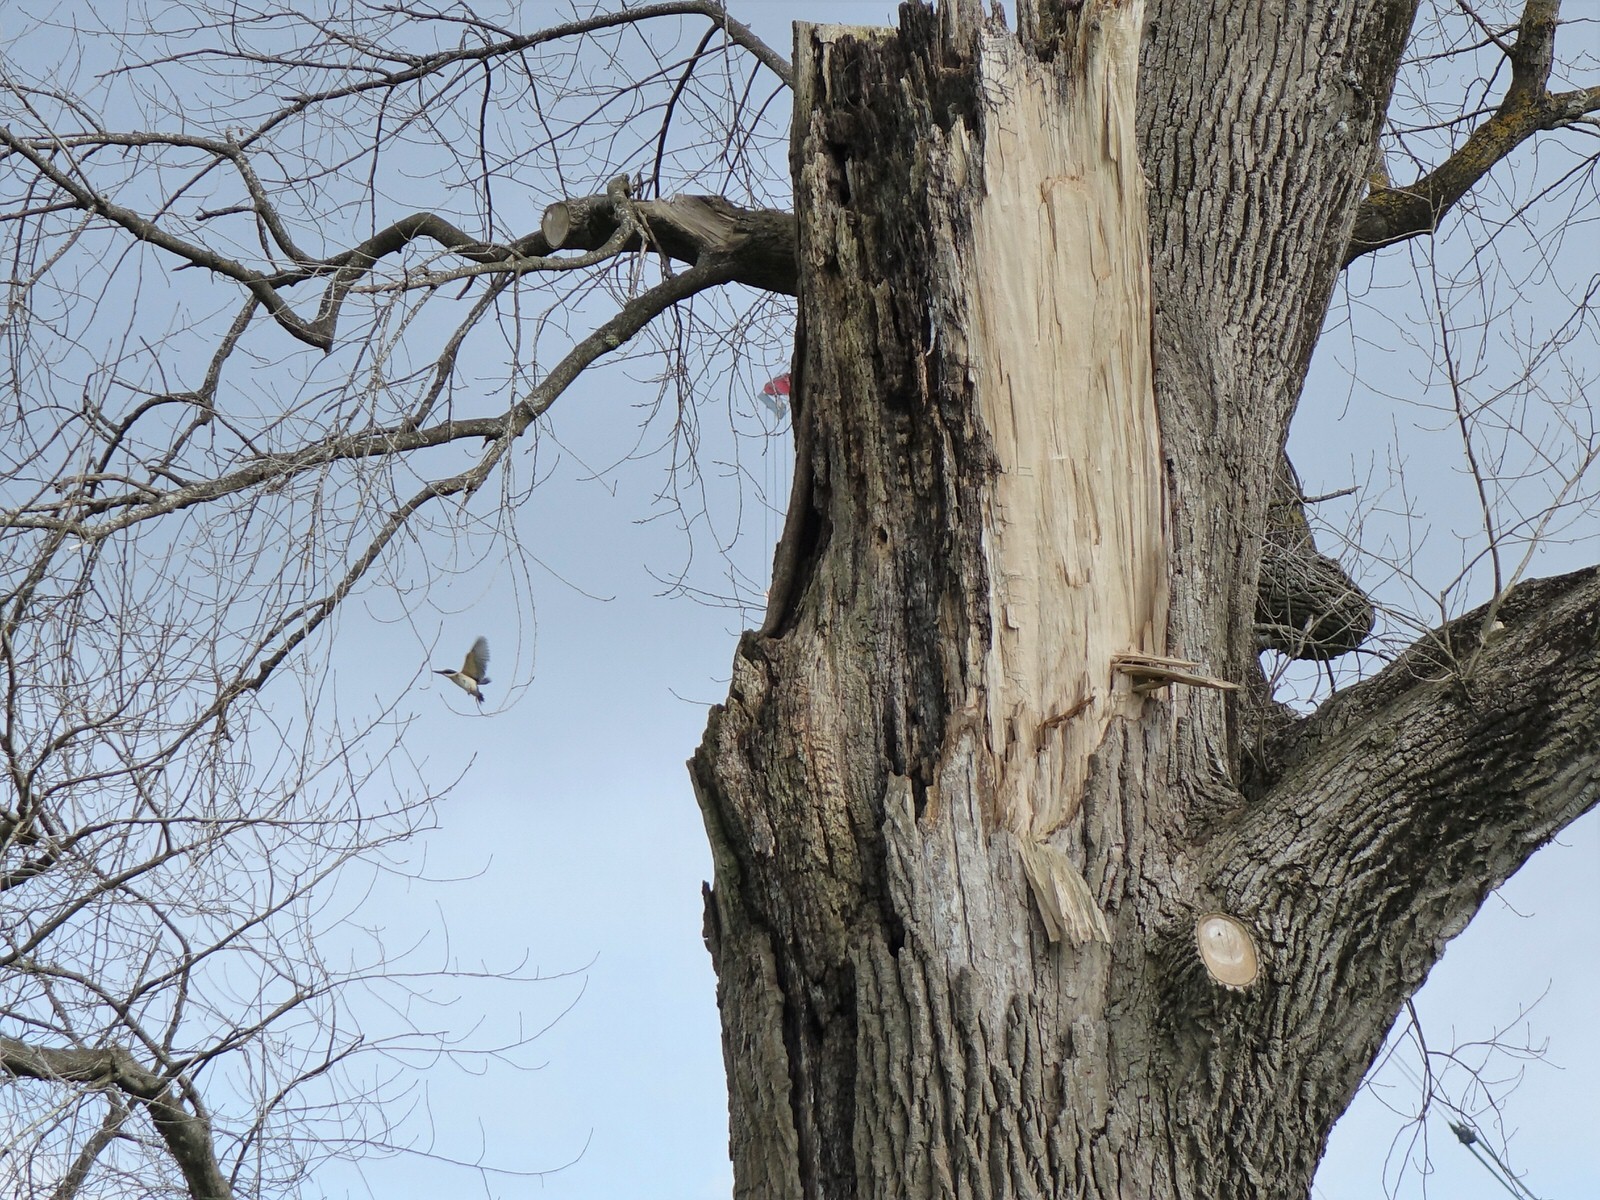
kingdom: Animalia
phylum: Chordata
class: Aves
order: Coraciiformes
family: Alcedinidae
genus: Todiramphus
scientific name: Todiramphus sanctus
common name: Sacred kingfisher
